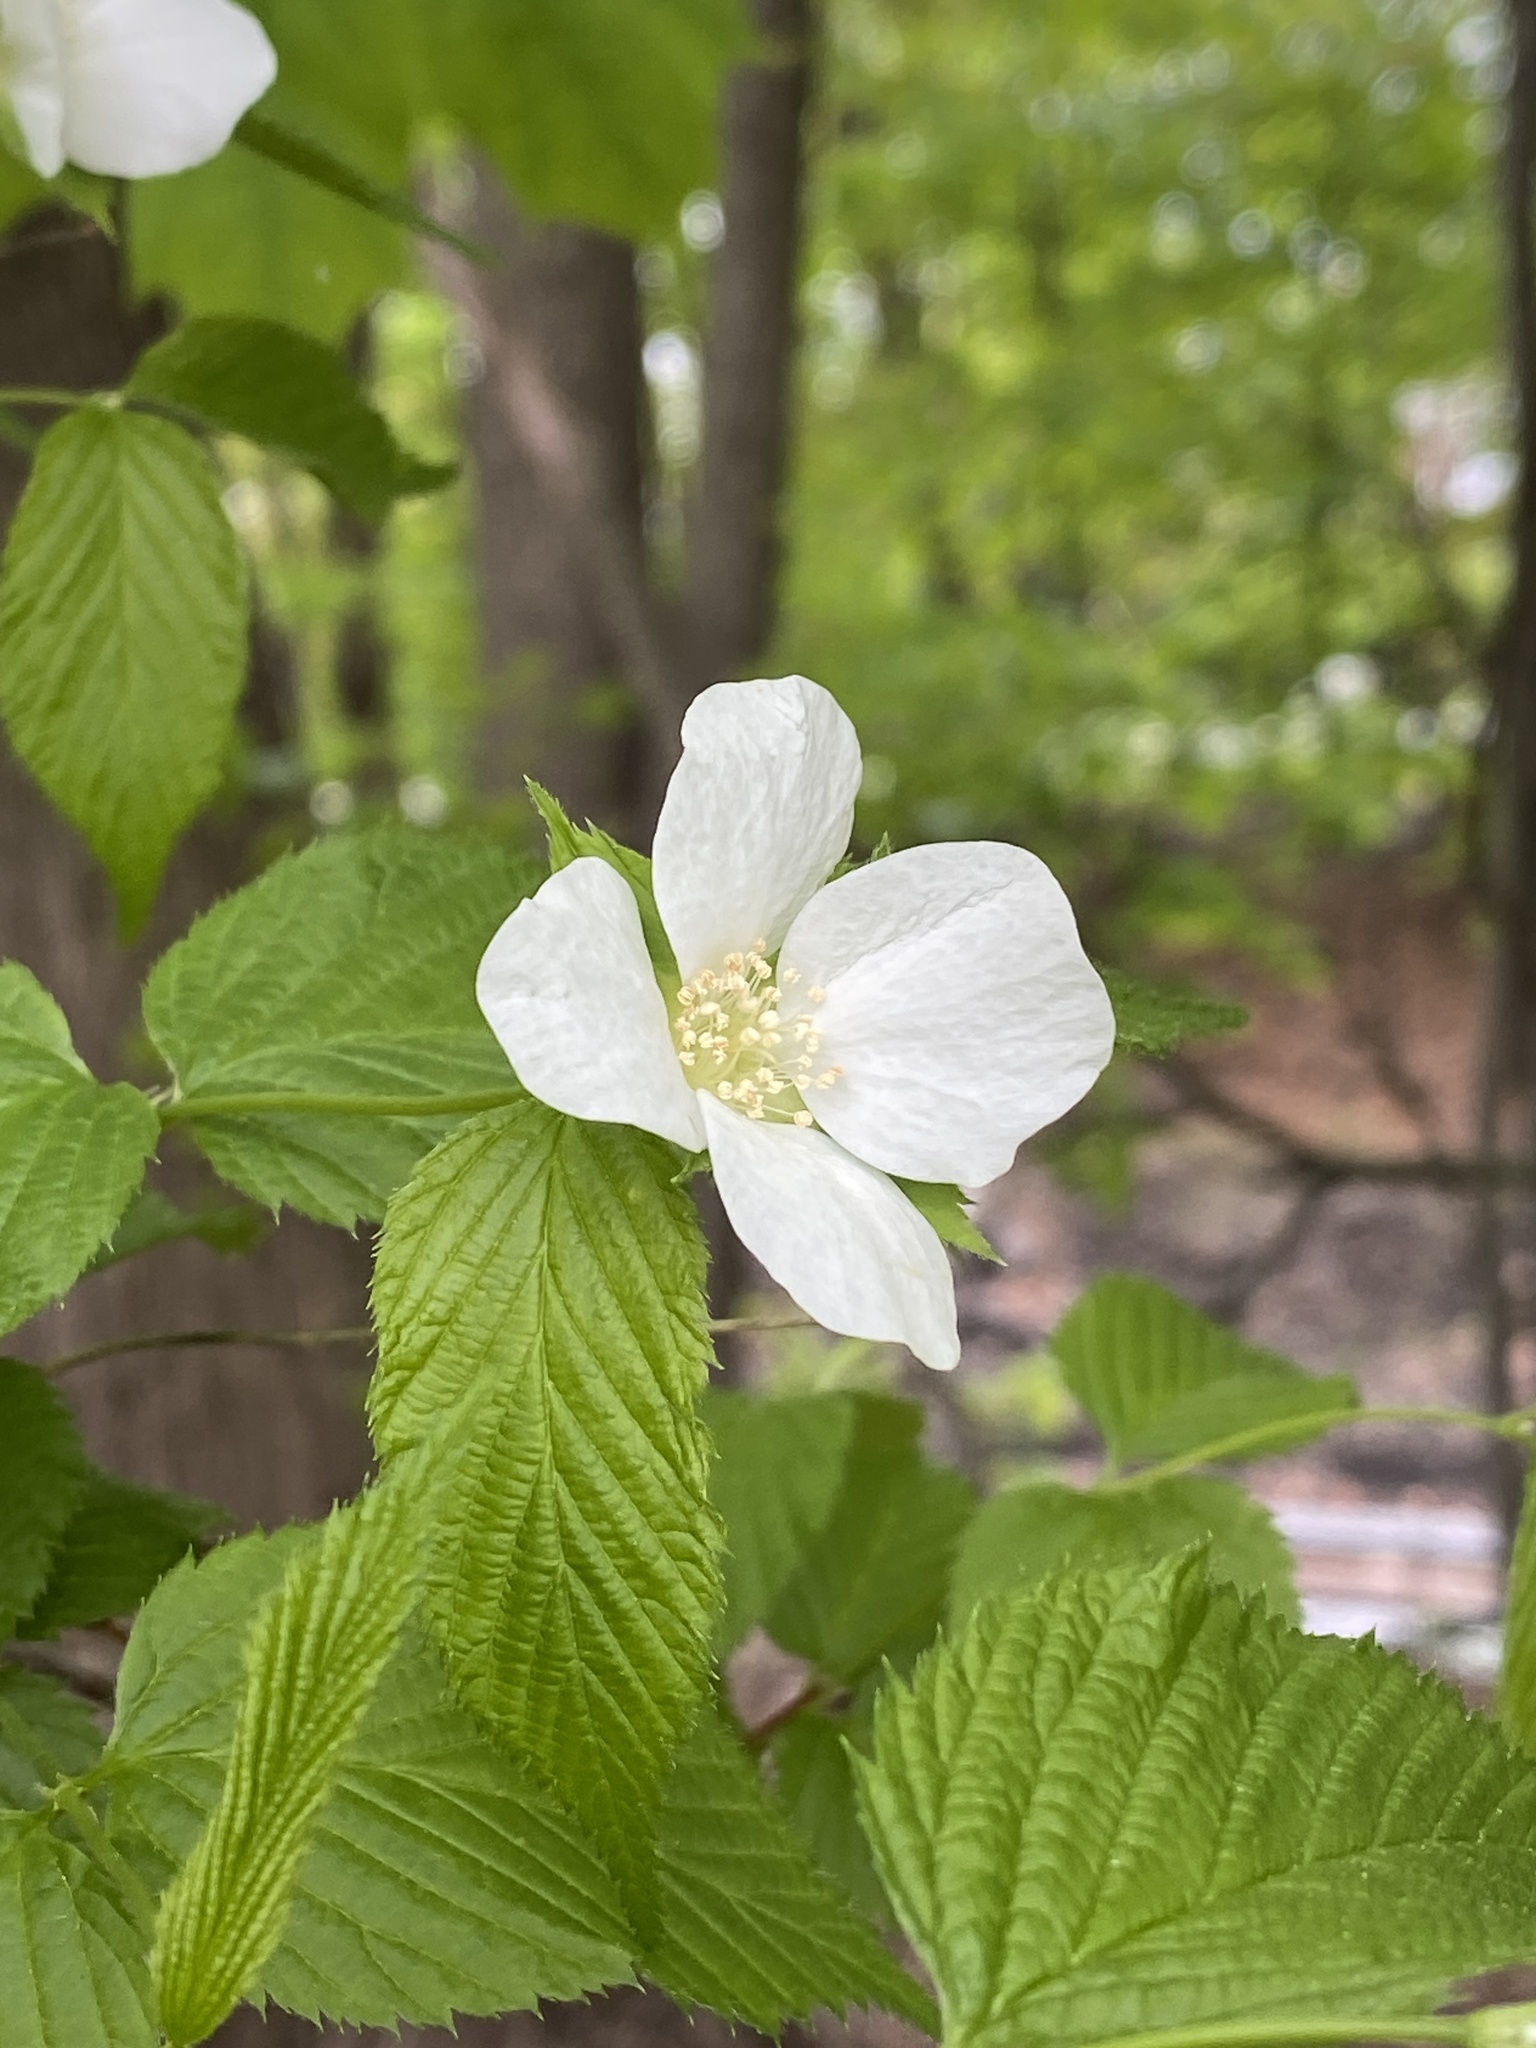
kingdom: Plantae
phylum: Tracheophyta
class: Magnoliopsida
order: Rosales
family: Rosaceae
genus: Rhodotypos
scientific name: Rhodotypos scandens
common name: Jetbead
